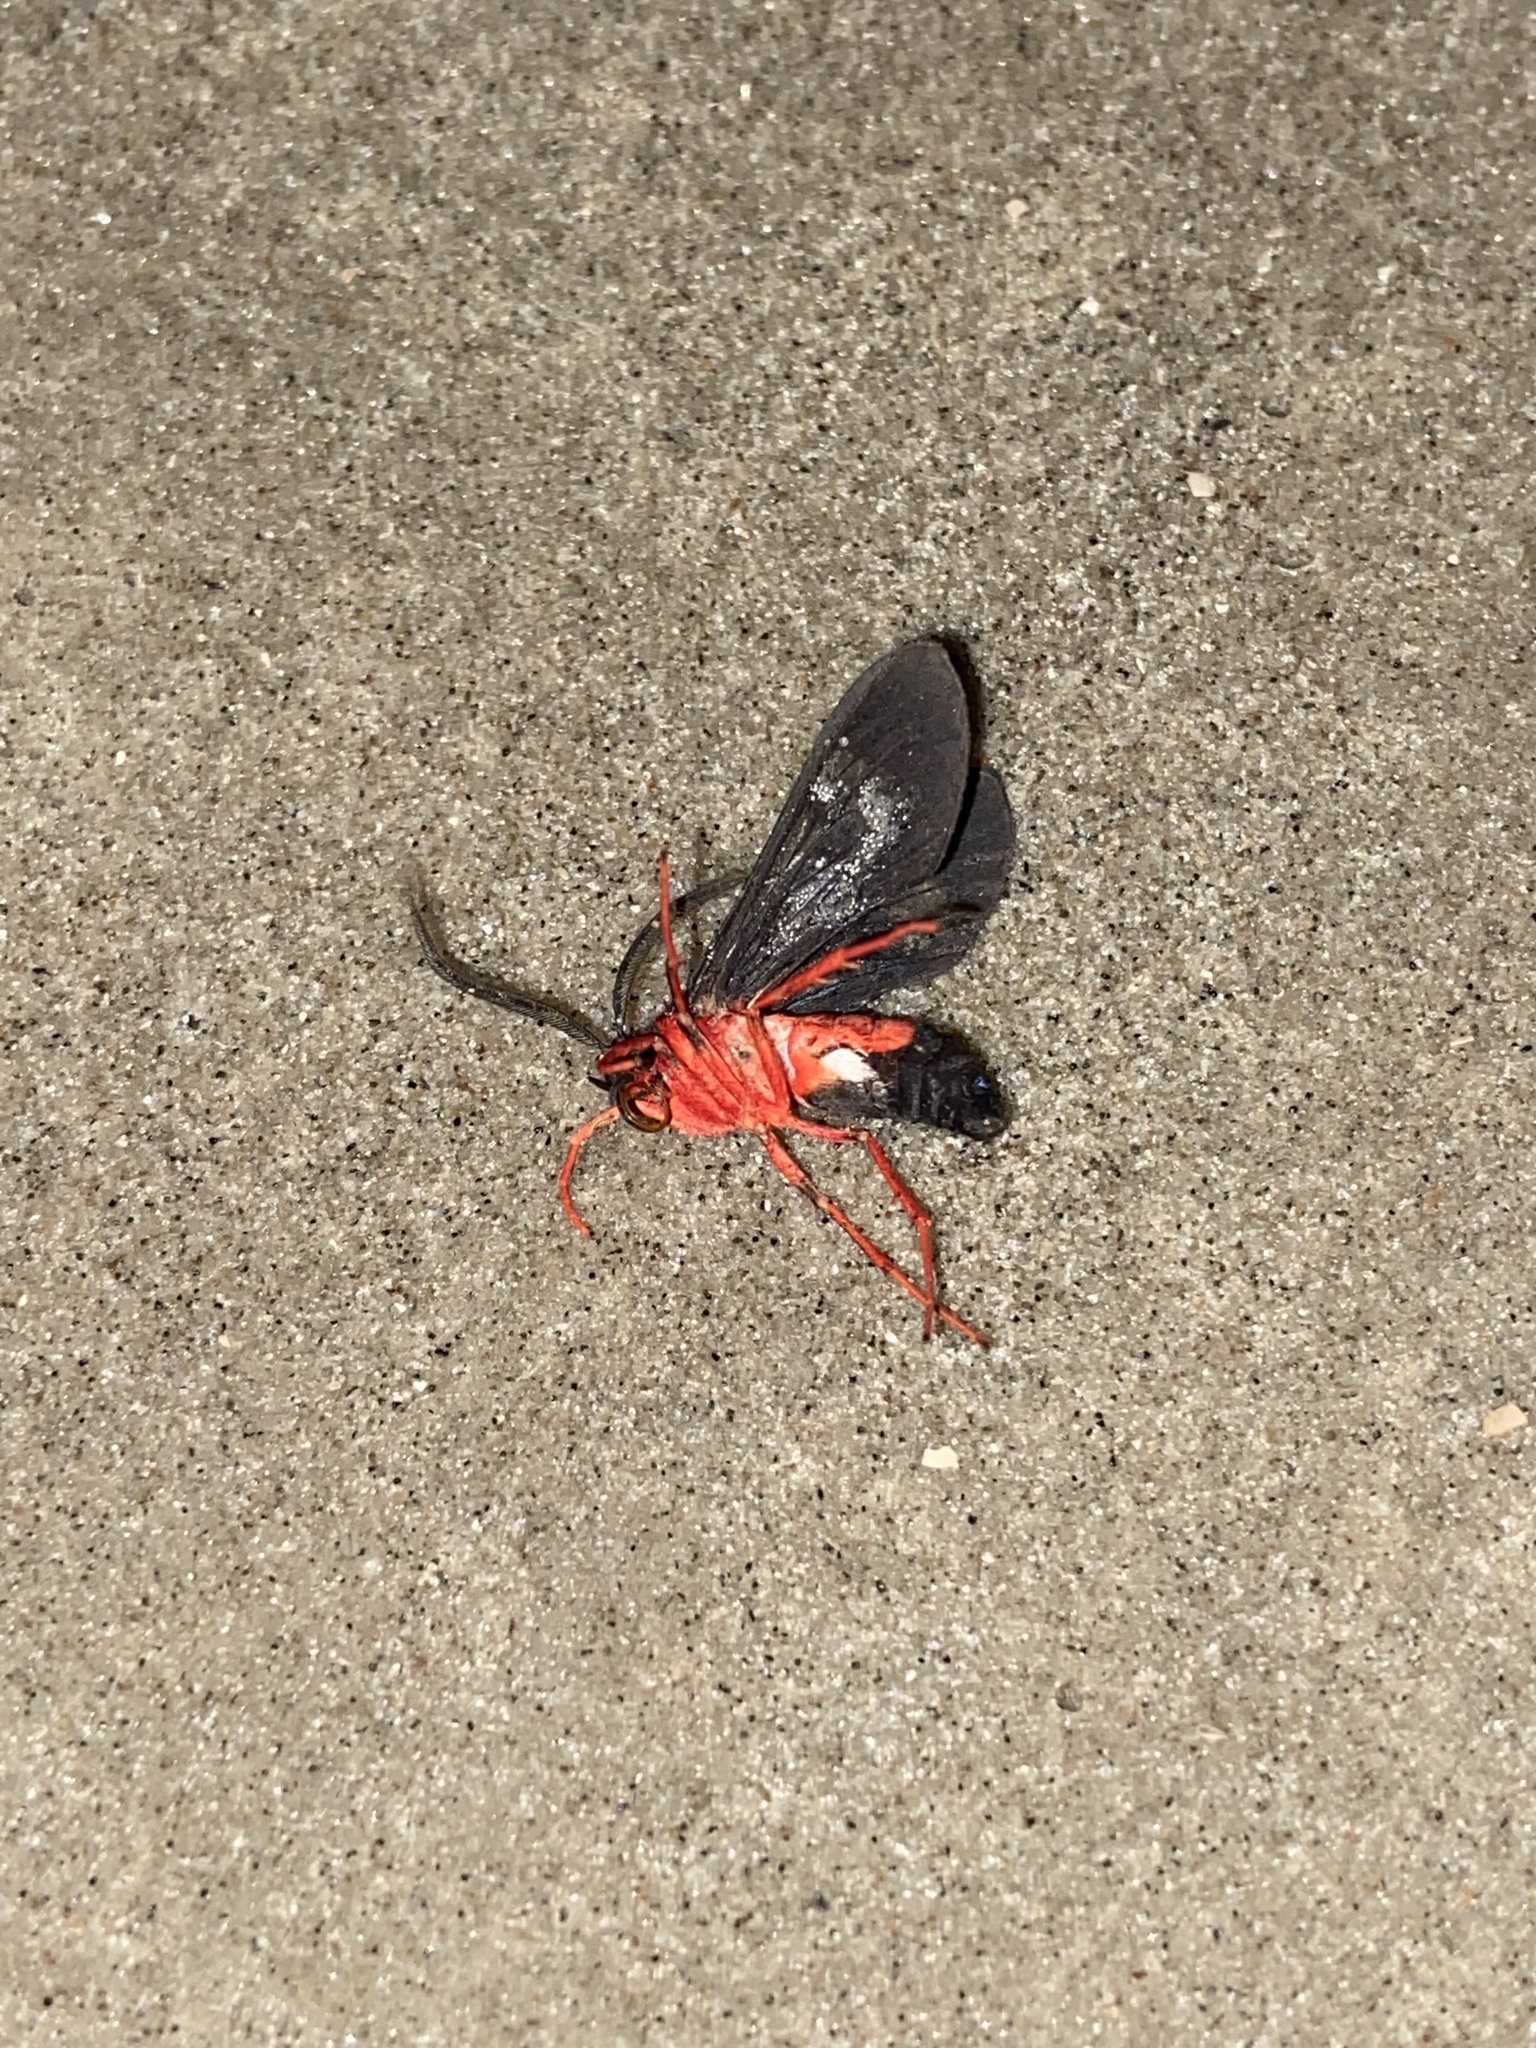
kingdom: Animalia
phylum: Arthropoda
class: Insecta
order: Lepidoptera
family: Erebidae
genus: Cosmosoma
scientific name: Cosmosoma myrodora
